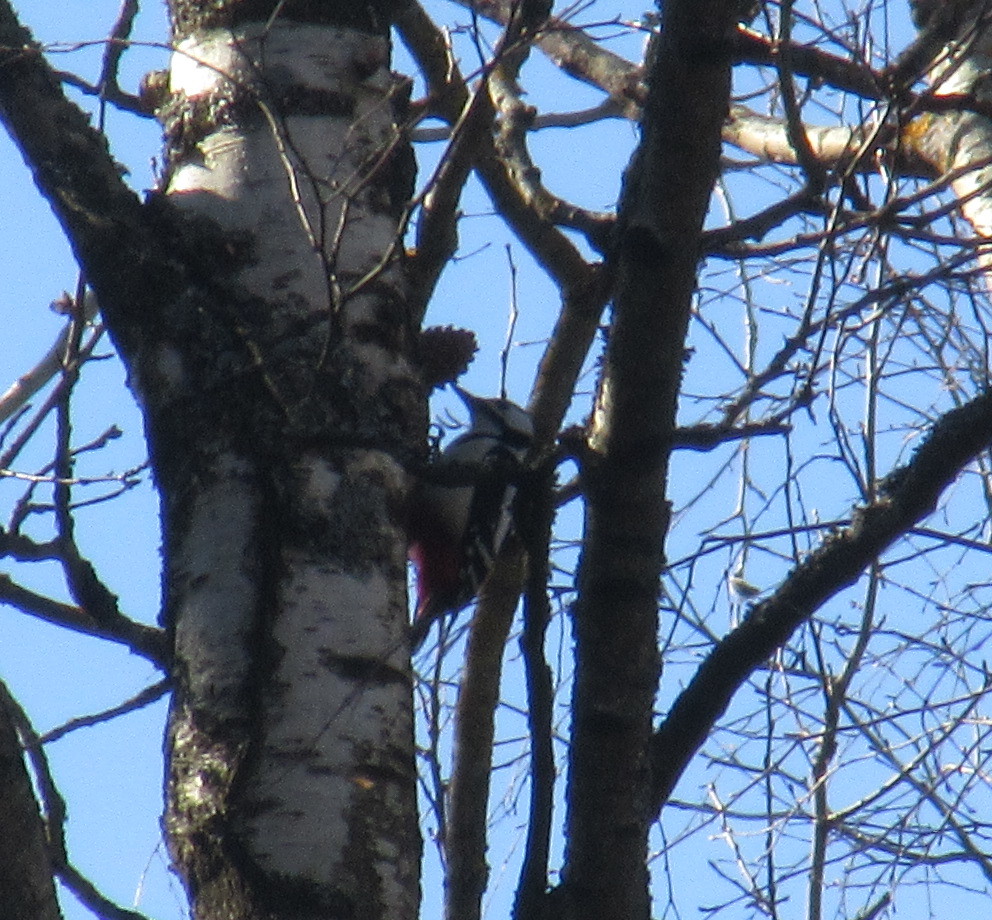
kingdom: Animalia
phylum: Chordata
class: Aves
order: Piciformes
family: Picidae
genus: Dendrocopos
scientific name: Dendrocopos major
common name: Great spotted woodpecker
